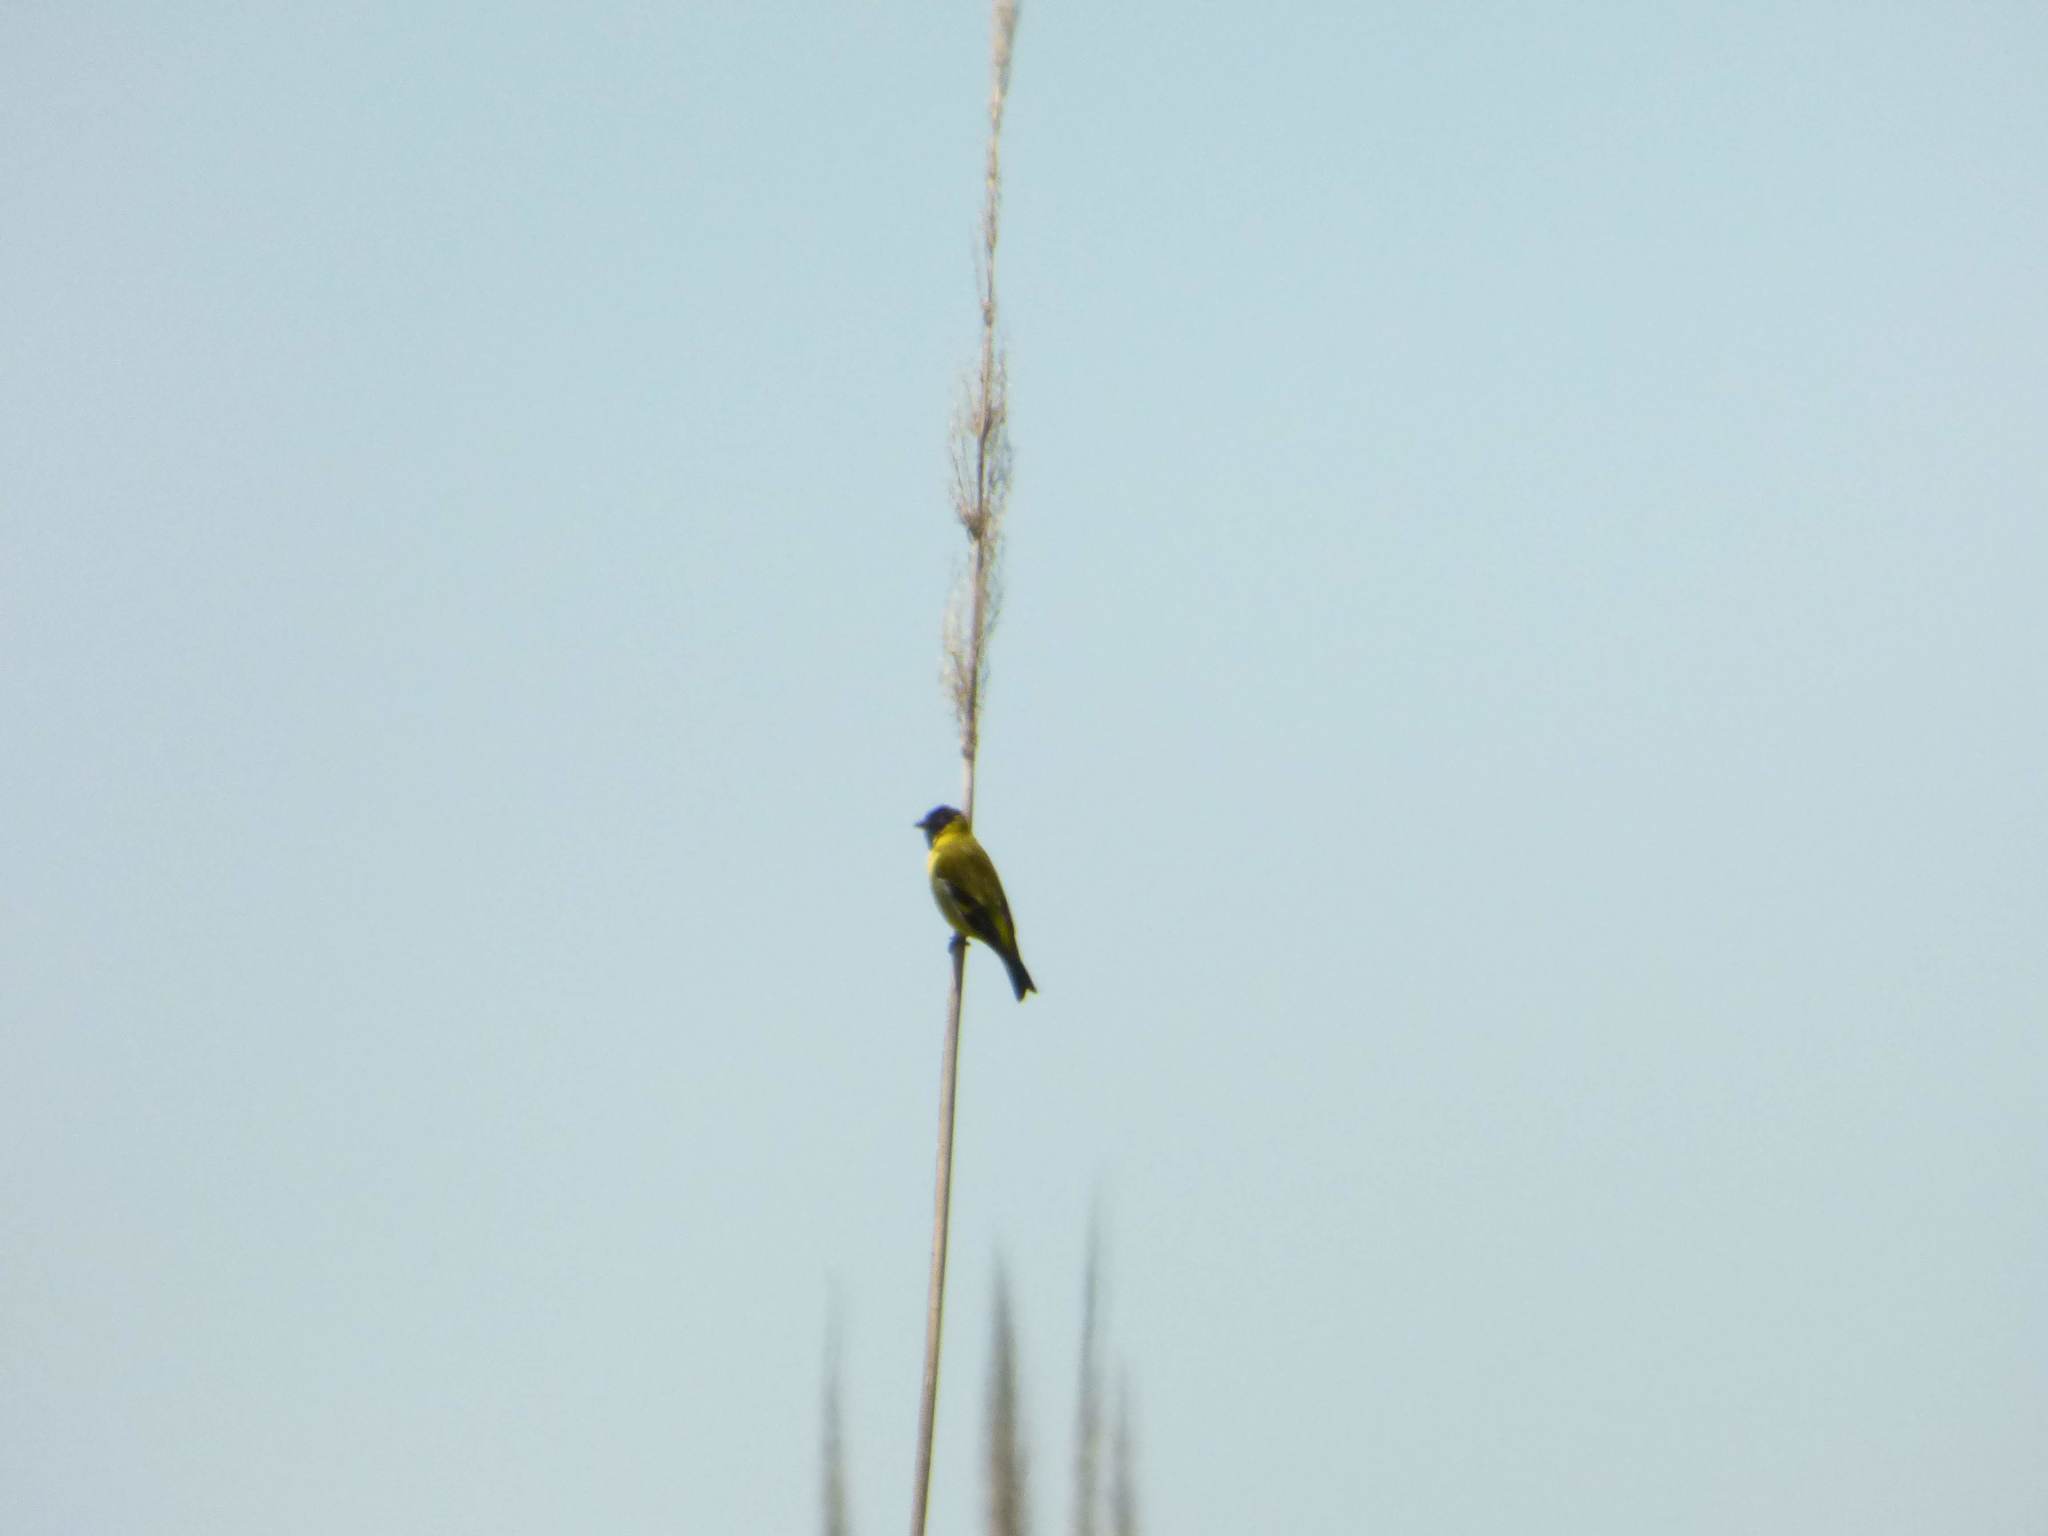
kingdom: Animalia
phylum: Chordata
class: Aves
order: Passeriformes
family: Fringillidae
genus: Spinus
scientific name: Spinus magellanicus
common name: Hooded siskin
